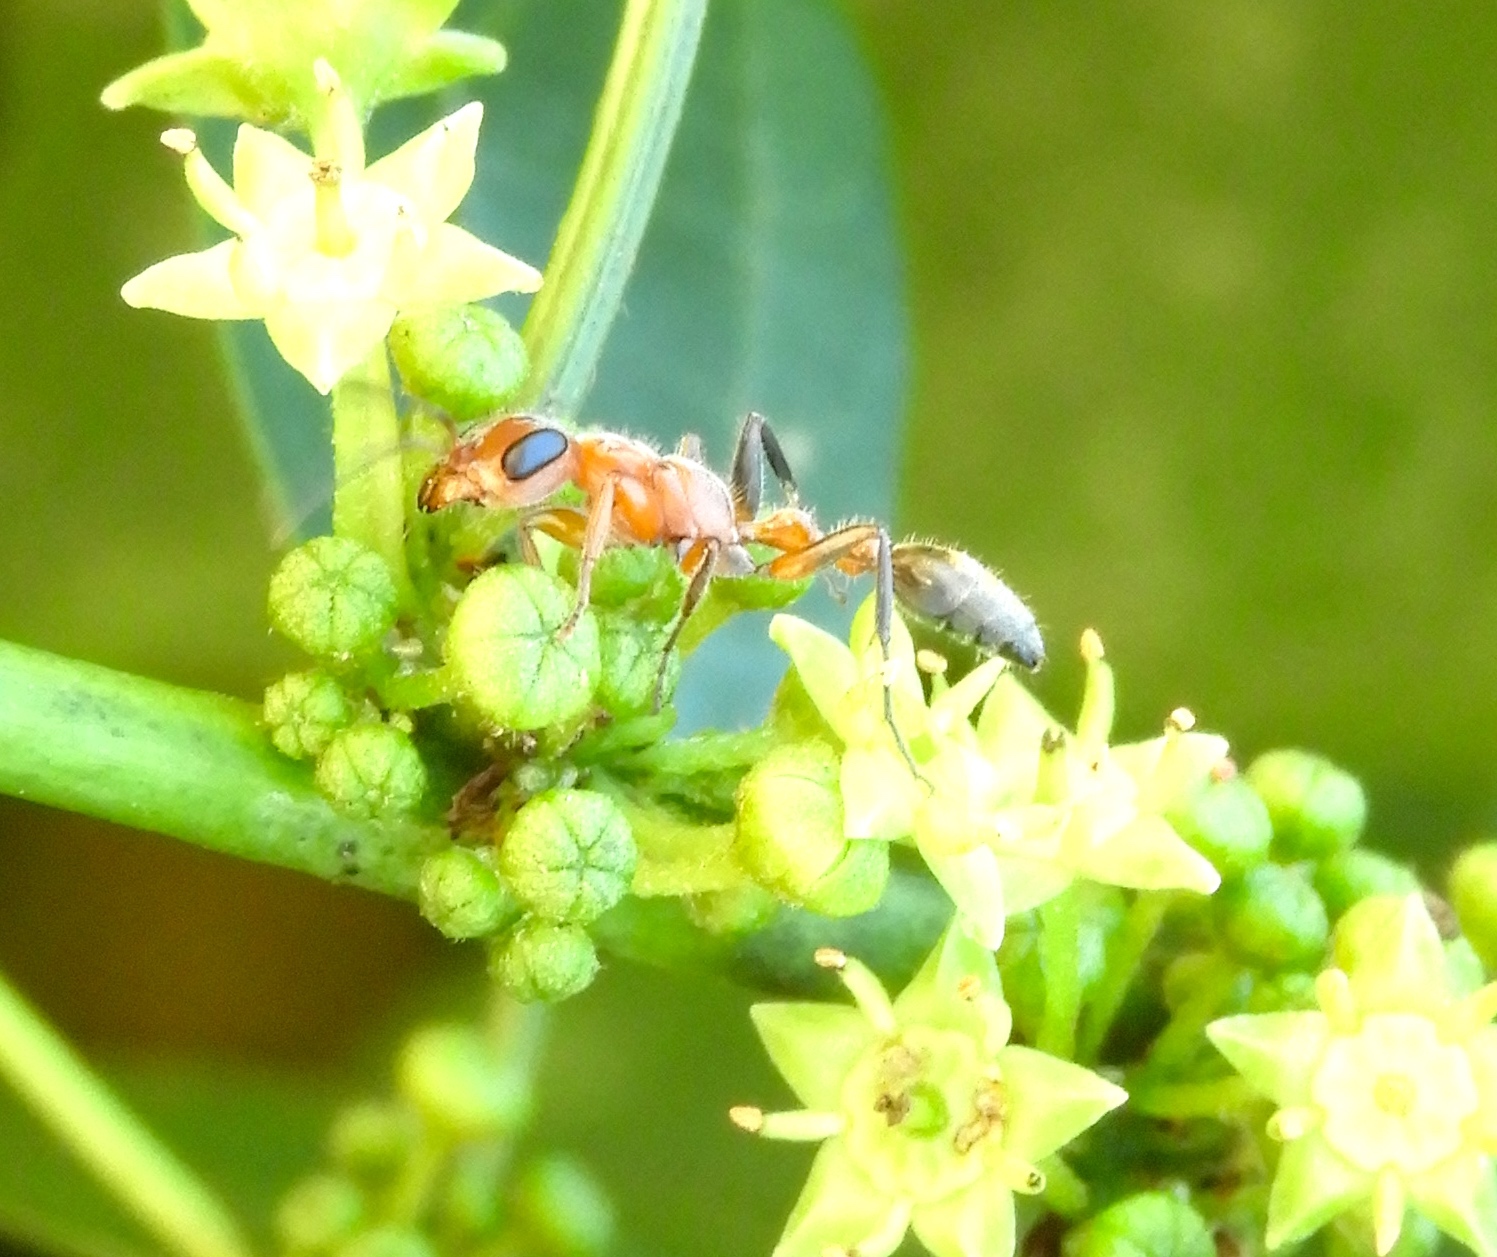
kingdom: Animalia
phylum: Arthropoda
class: Insecta
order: Hymenoptera
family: Formicidae
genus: Pseudomyrmex
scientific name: Pseudomyrmex
